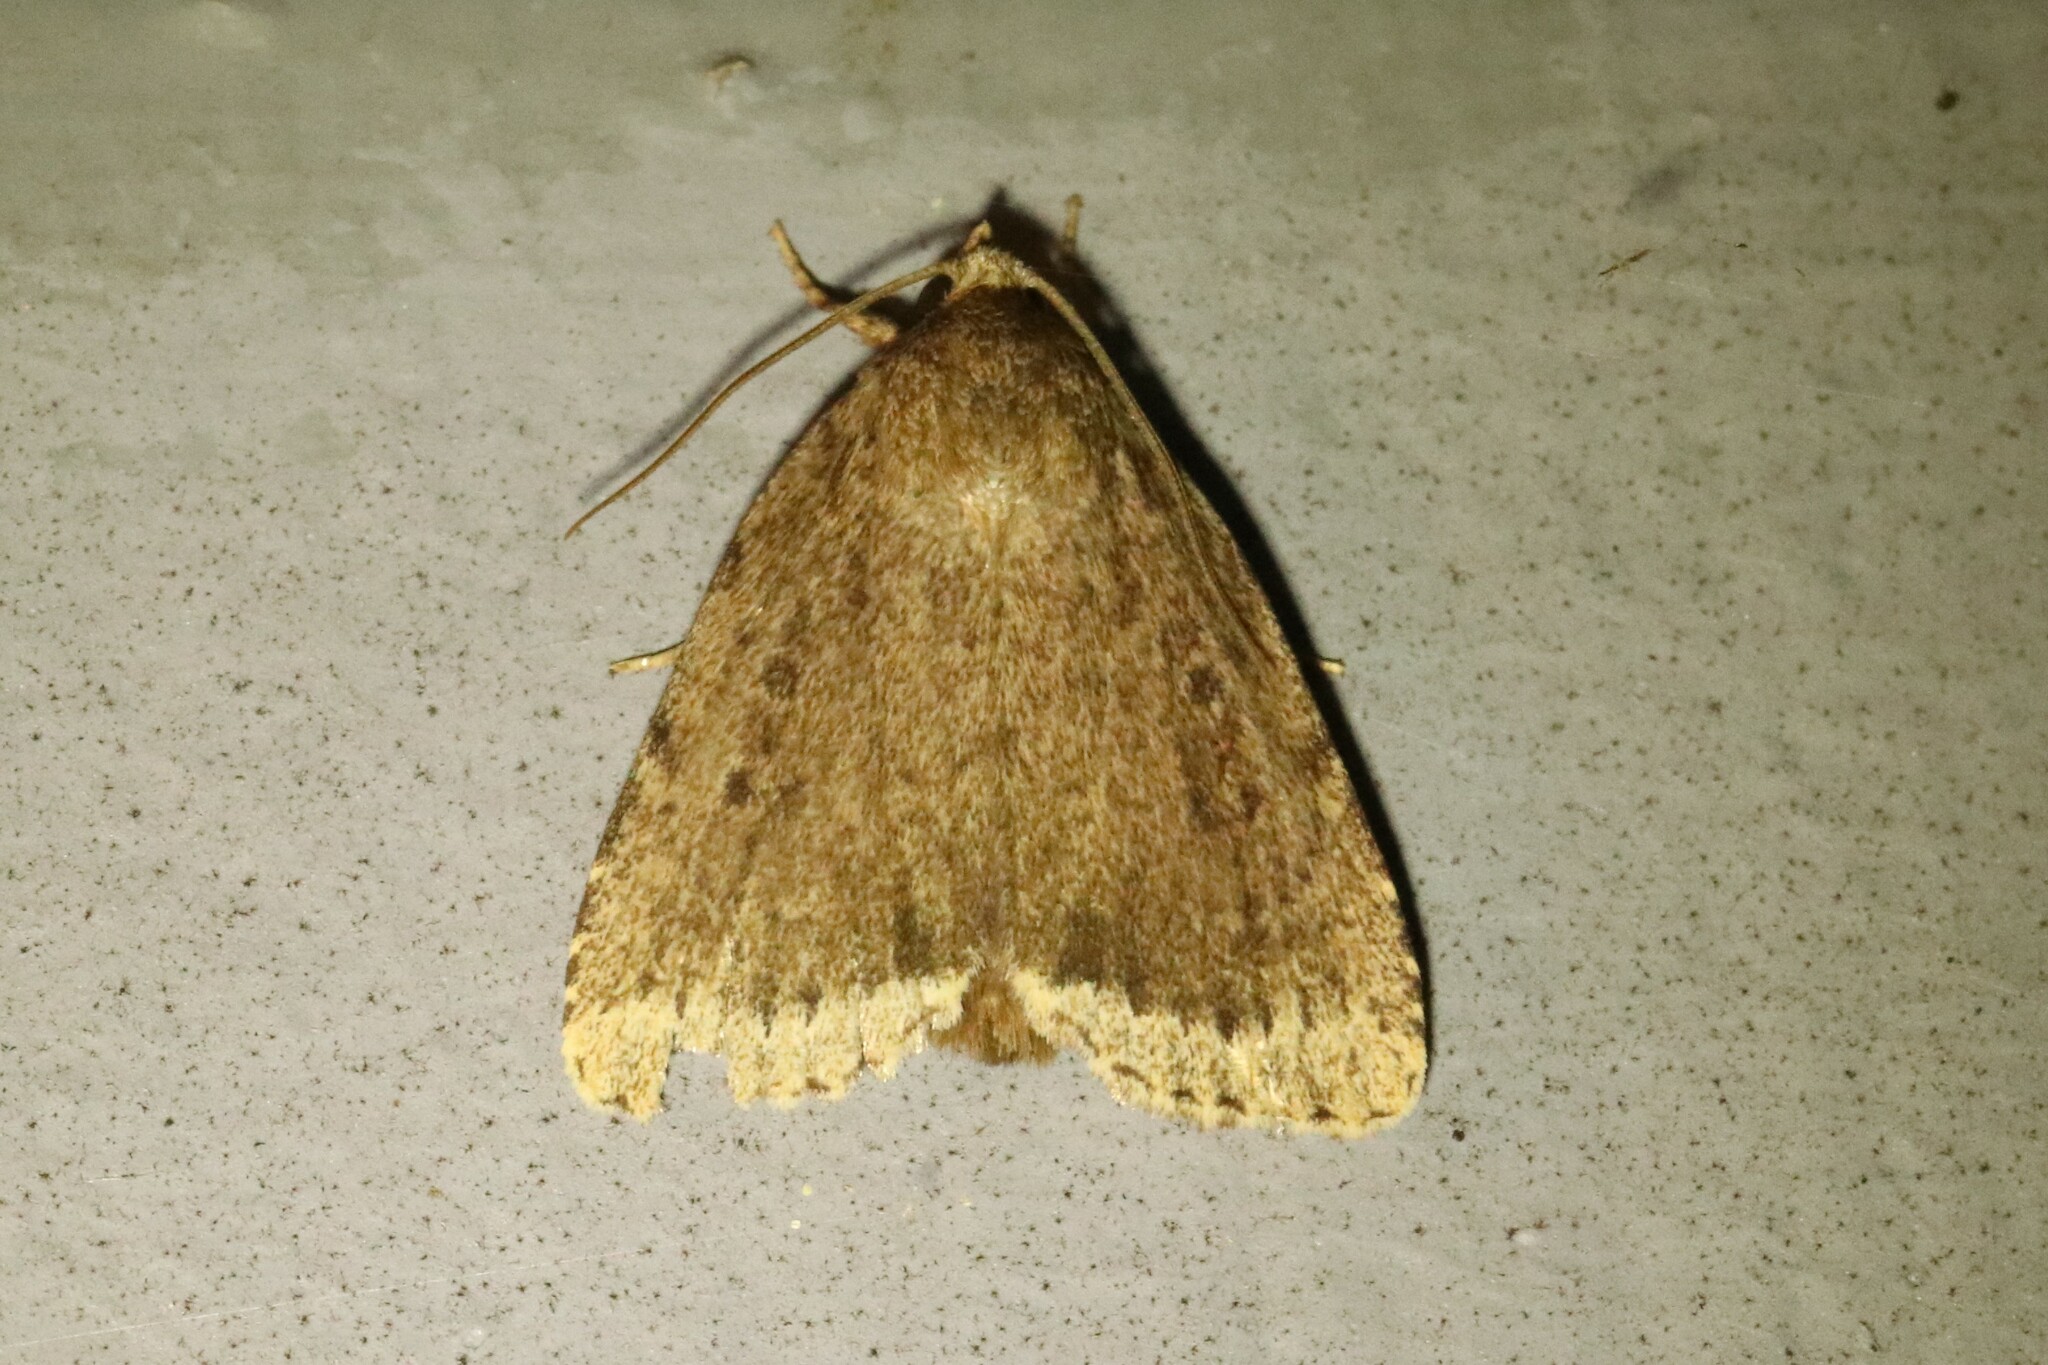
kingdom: Animalia
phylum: Arthropoda
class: Insecta
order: Lepidoptera
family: Noctuidae
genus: Amphipyra
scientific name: Amphipyra glabella
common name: Smooth amphipyra moth
